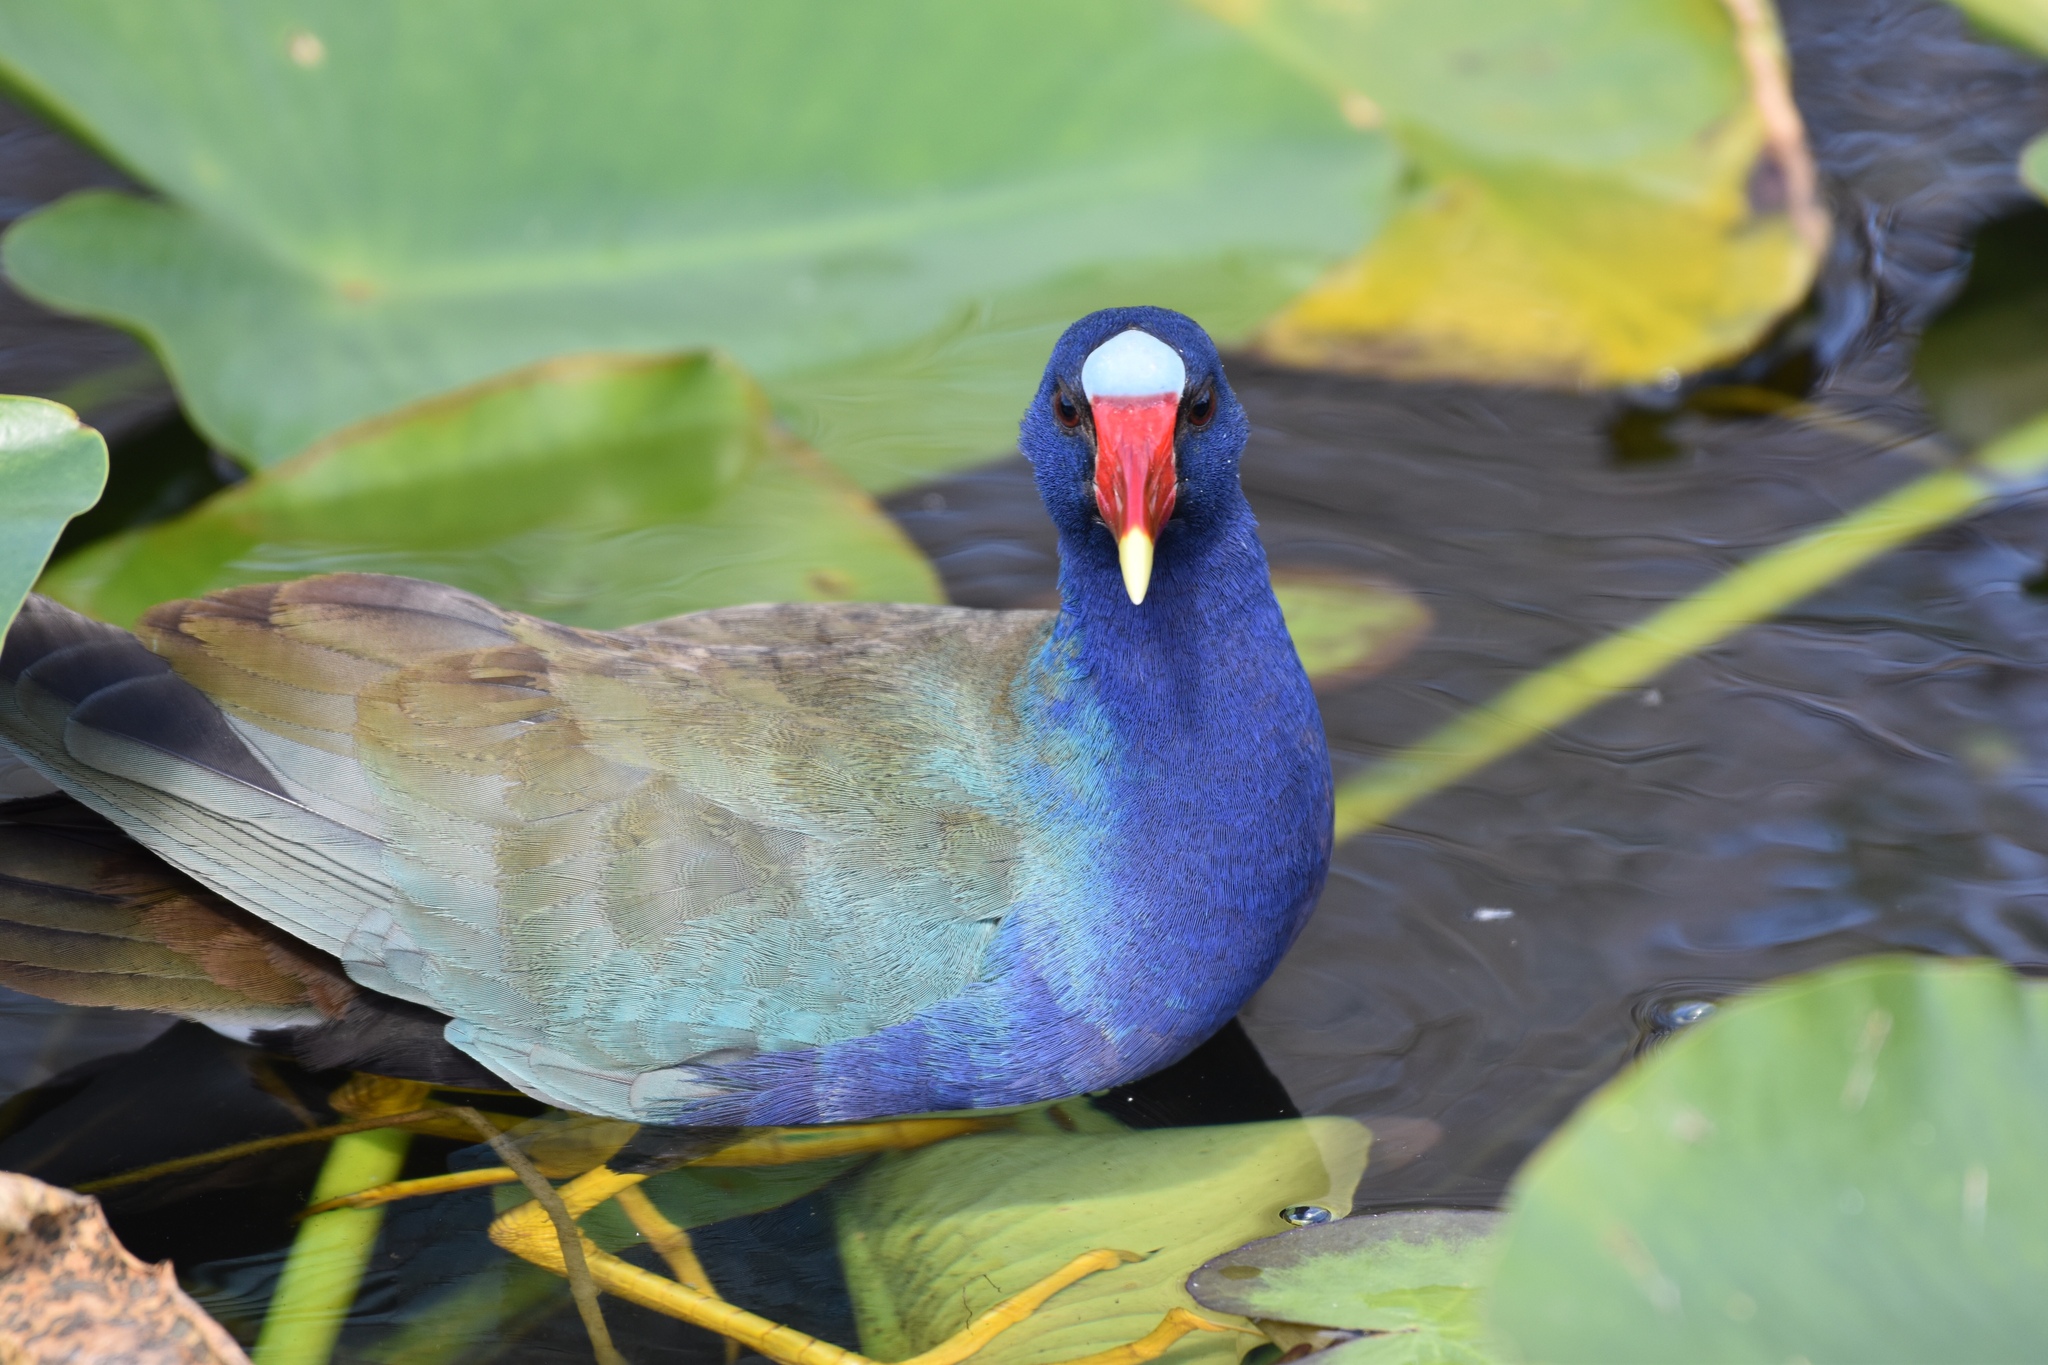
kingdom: Animalia
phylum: Chordata
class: Aves
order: Gruiformes
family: Rallidae
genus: Porphyrio
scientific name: Porphyrio martinica
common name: Purple gallinule
